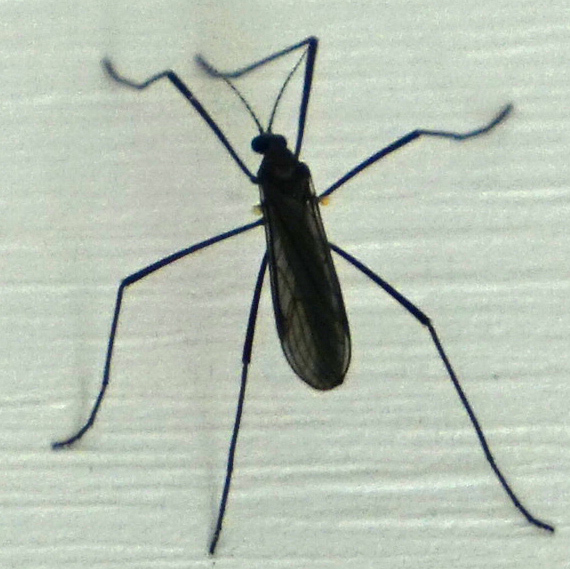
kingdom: Animalia
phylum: Arthropoda
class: Insecta
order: Diptera
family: Limoniidae
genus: Gnophomyia
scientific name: Gnophomyia tristissima
